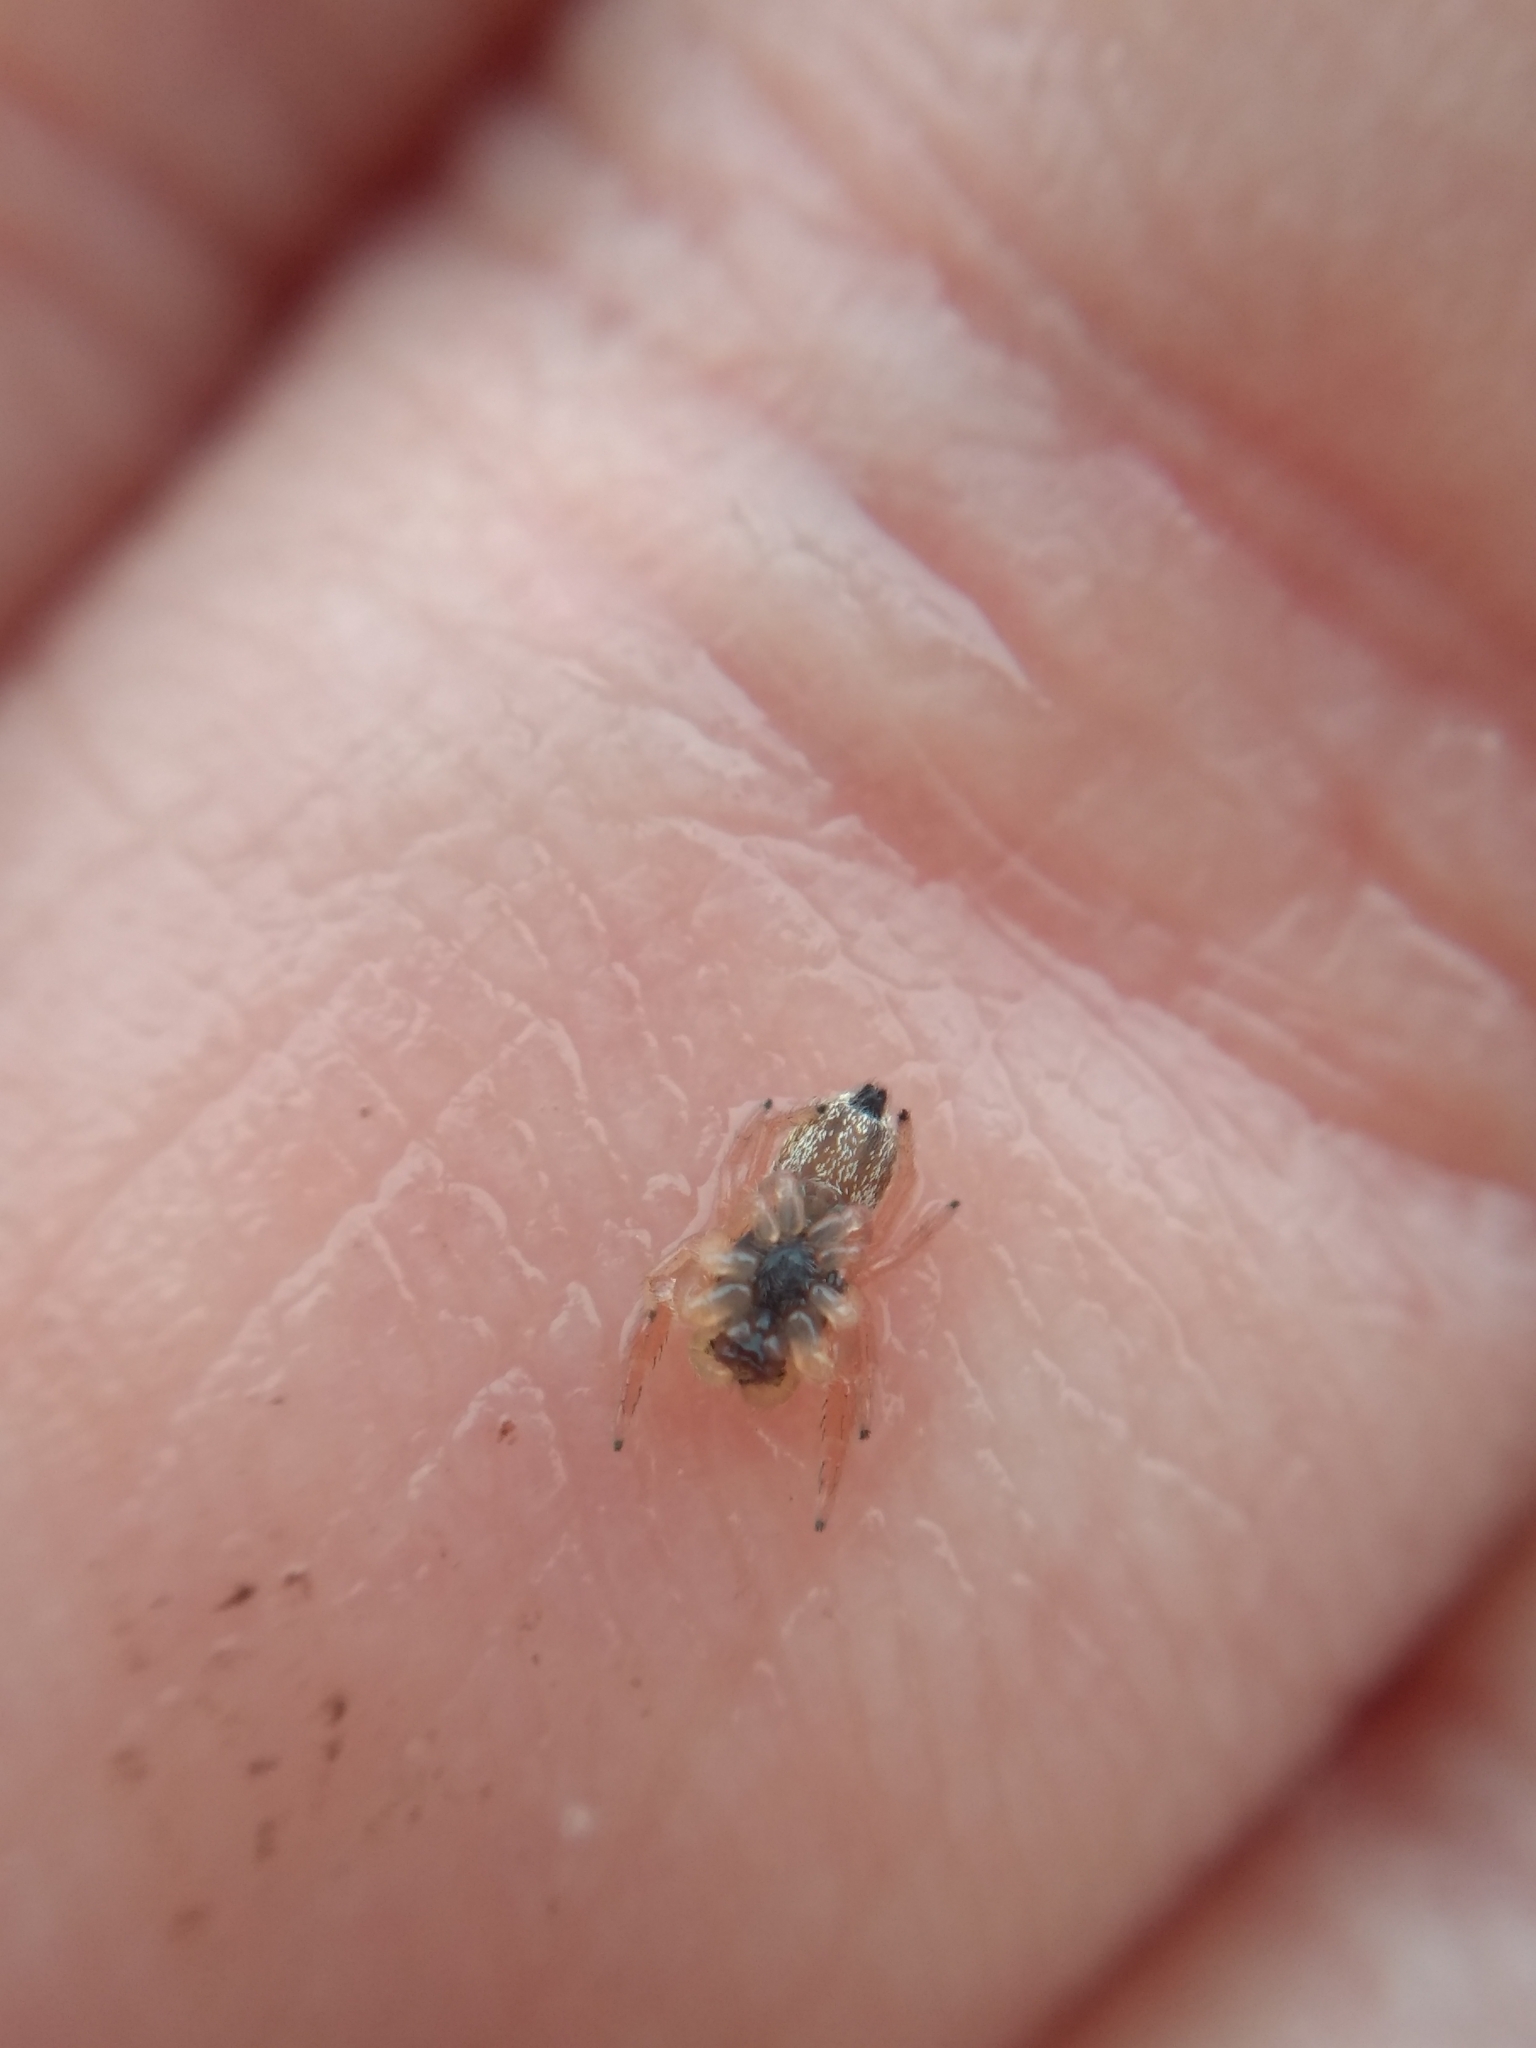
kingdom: Animalia
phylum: Arthropoda
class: Arachnida
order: Araneae
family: Salticidae
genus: Sassacus
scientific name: Sassacus vitis
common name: Jumping spiders
